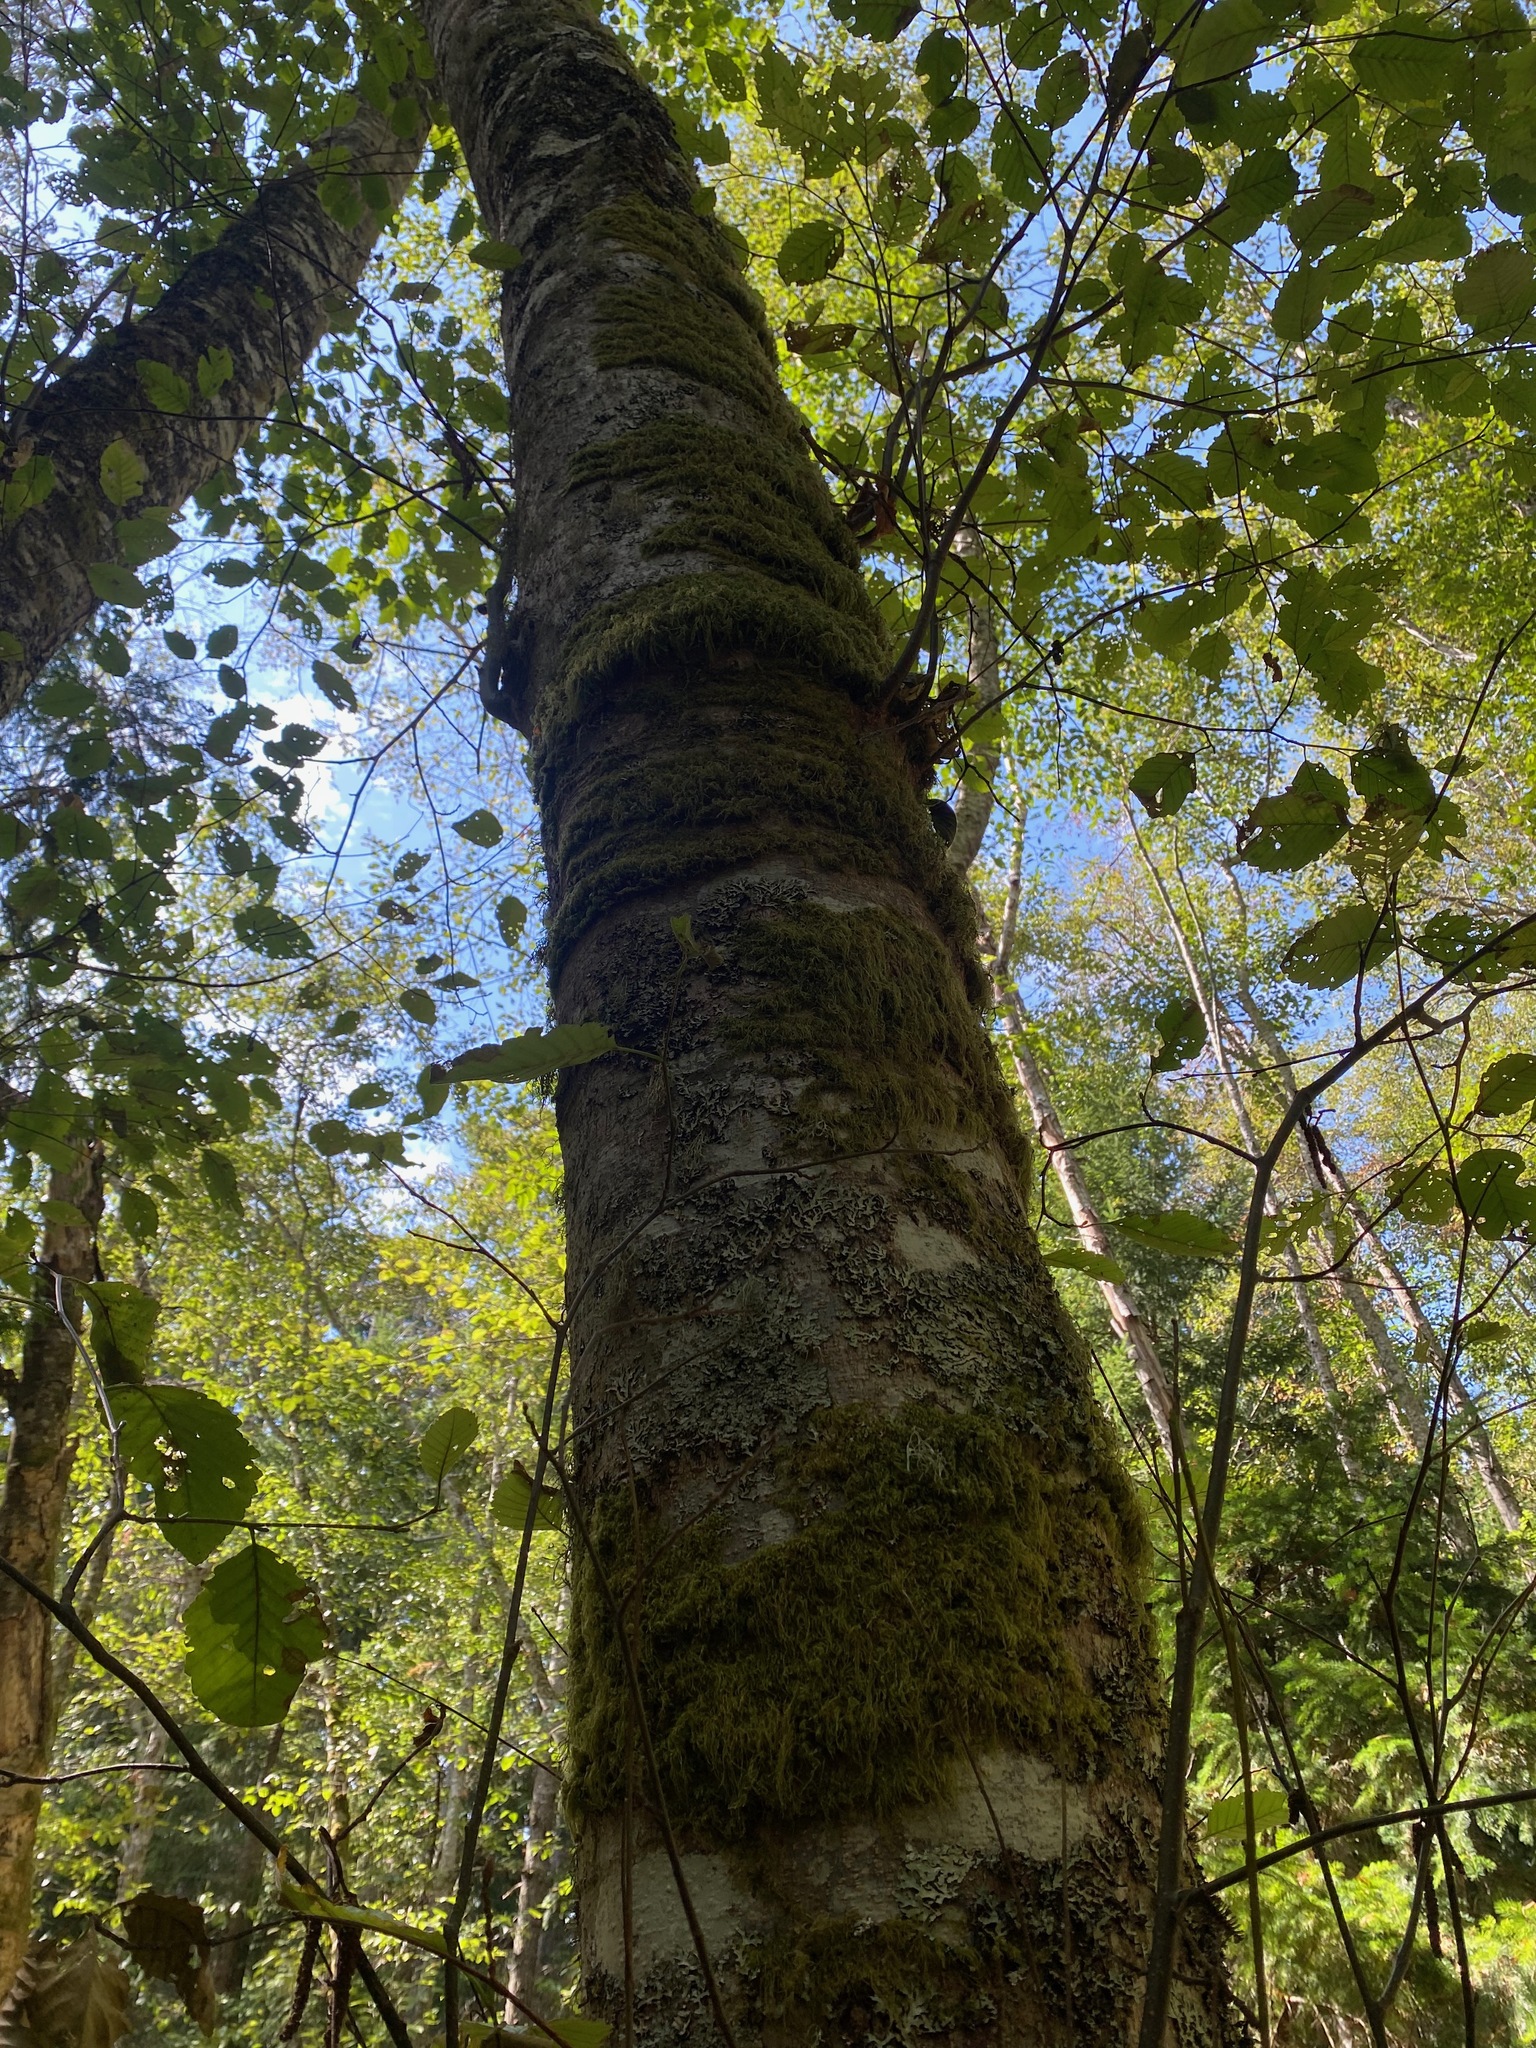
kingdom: Plantae
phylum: Tracheophyta
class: Magnoliopsida
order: Fagales
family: Betulaceae
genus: Alnus
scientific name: Alnus rubra
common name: Red alder
